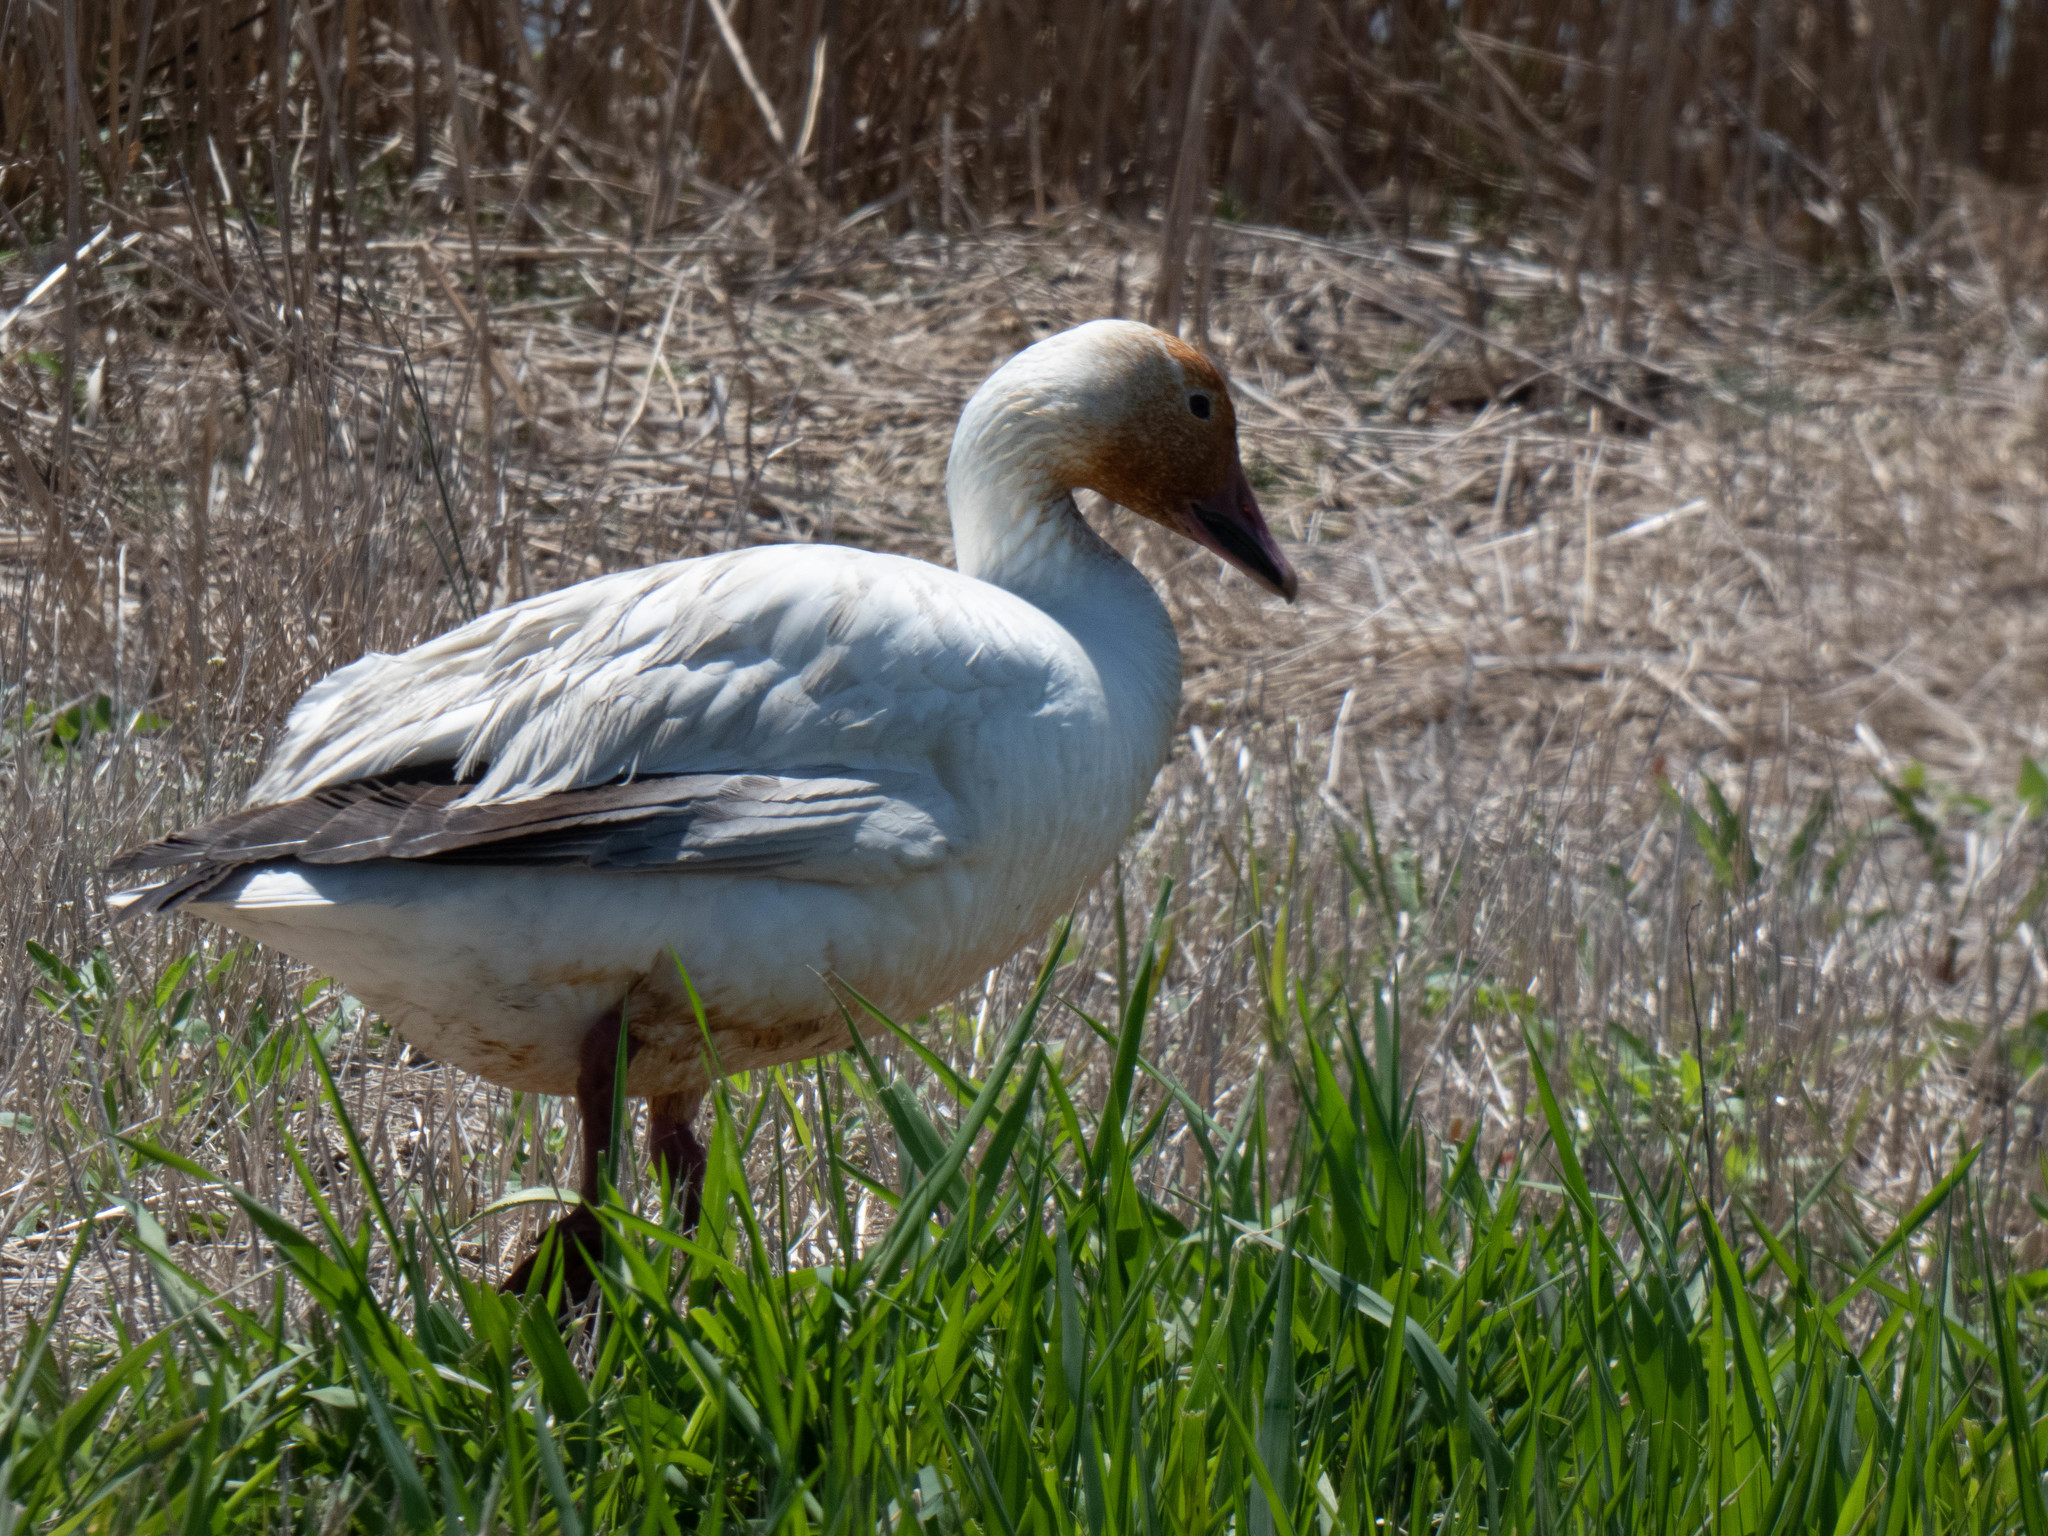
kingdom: Animalia
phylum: Chordata
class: Aves
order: Anseriformes
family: Anatidae
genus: Anser
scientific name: Anser caerulescens
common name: Snow goose
